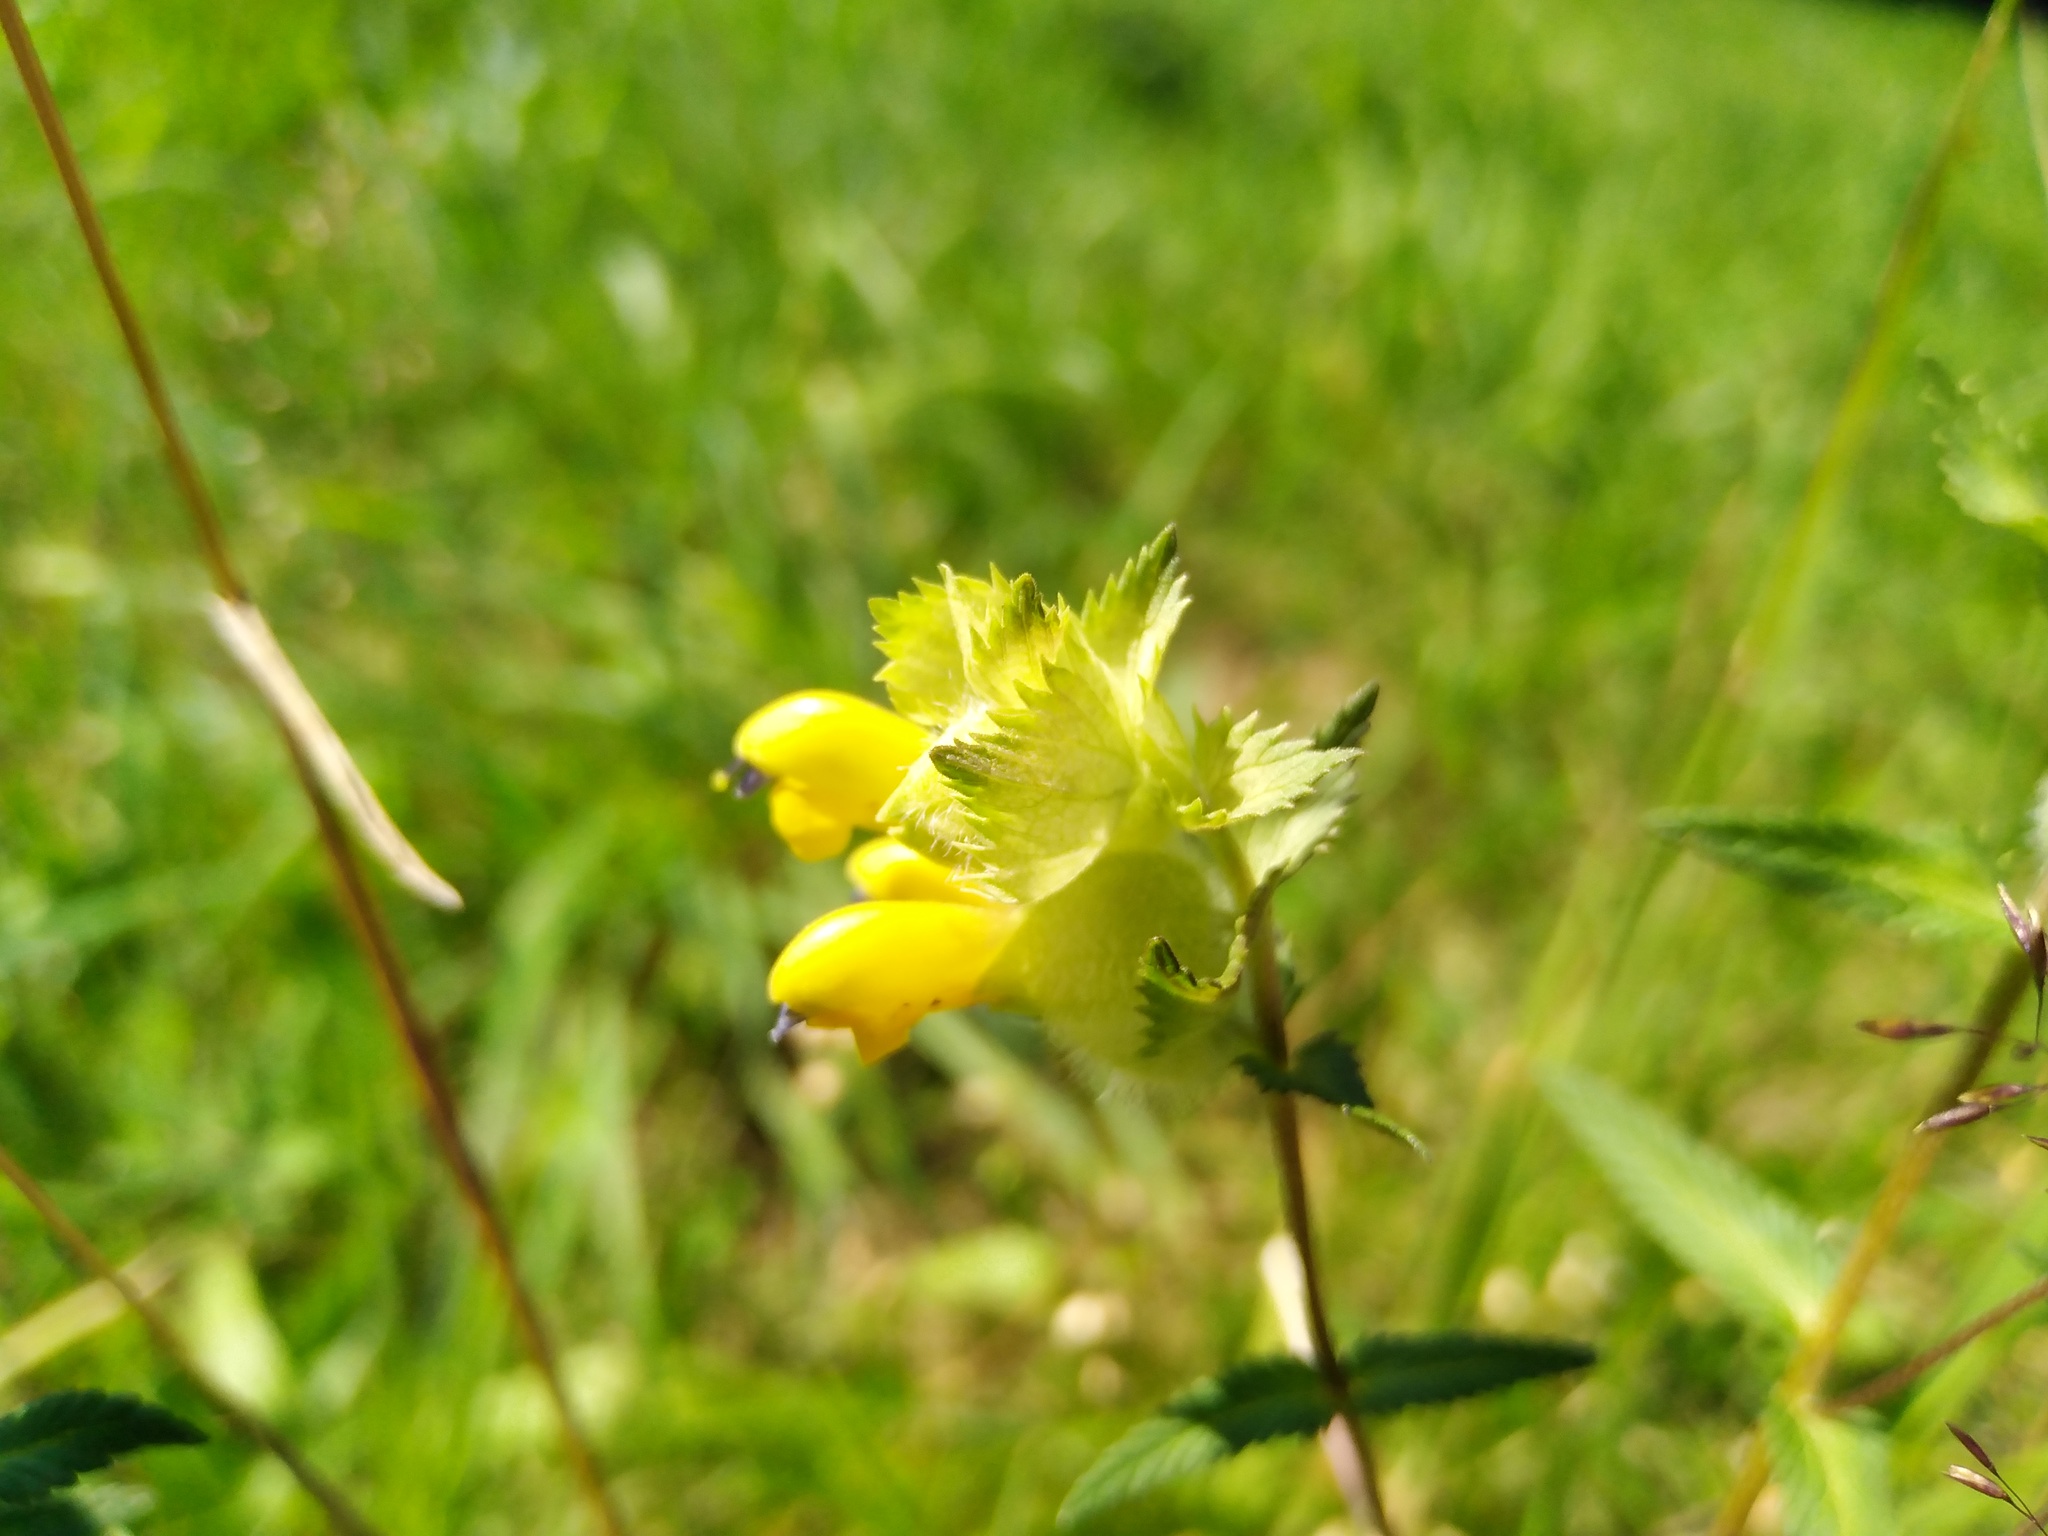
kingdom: Plantae
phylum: Tracheophyta
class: Magnoliopsida
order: Lamiales
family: Orobanchaceae
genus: Rhinanthus
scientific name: Rhinanthus alectorolophus
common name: Greater yellow-rattle
